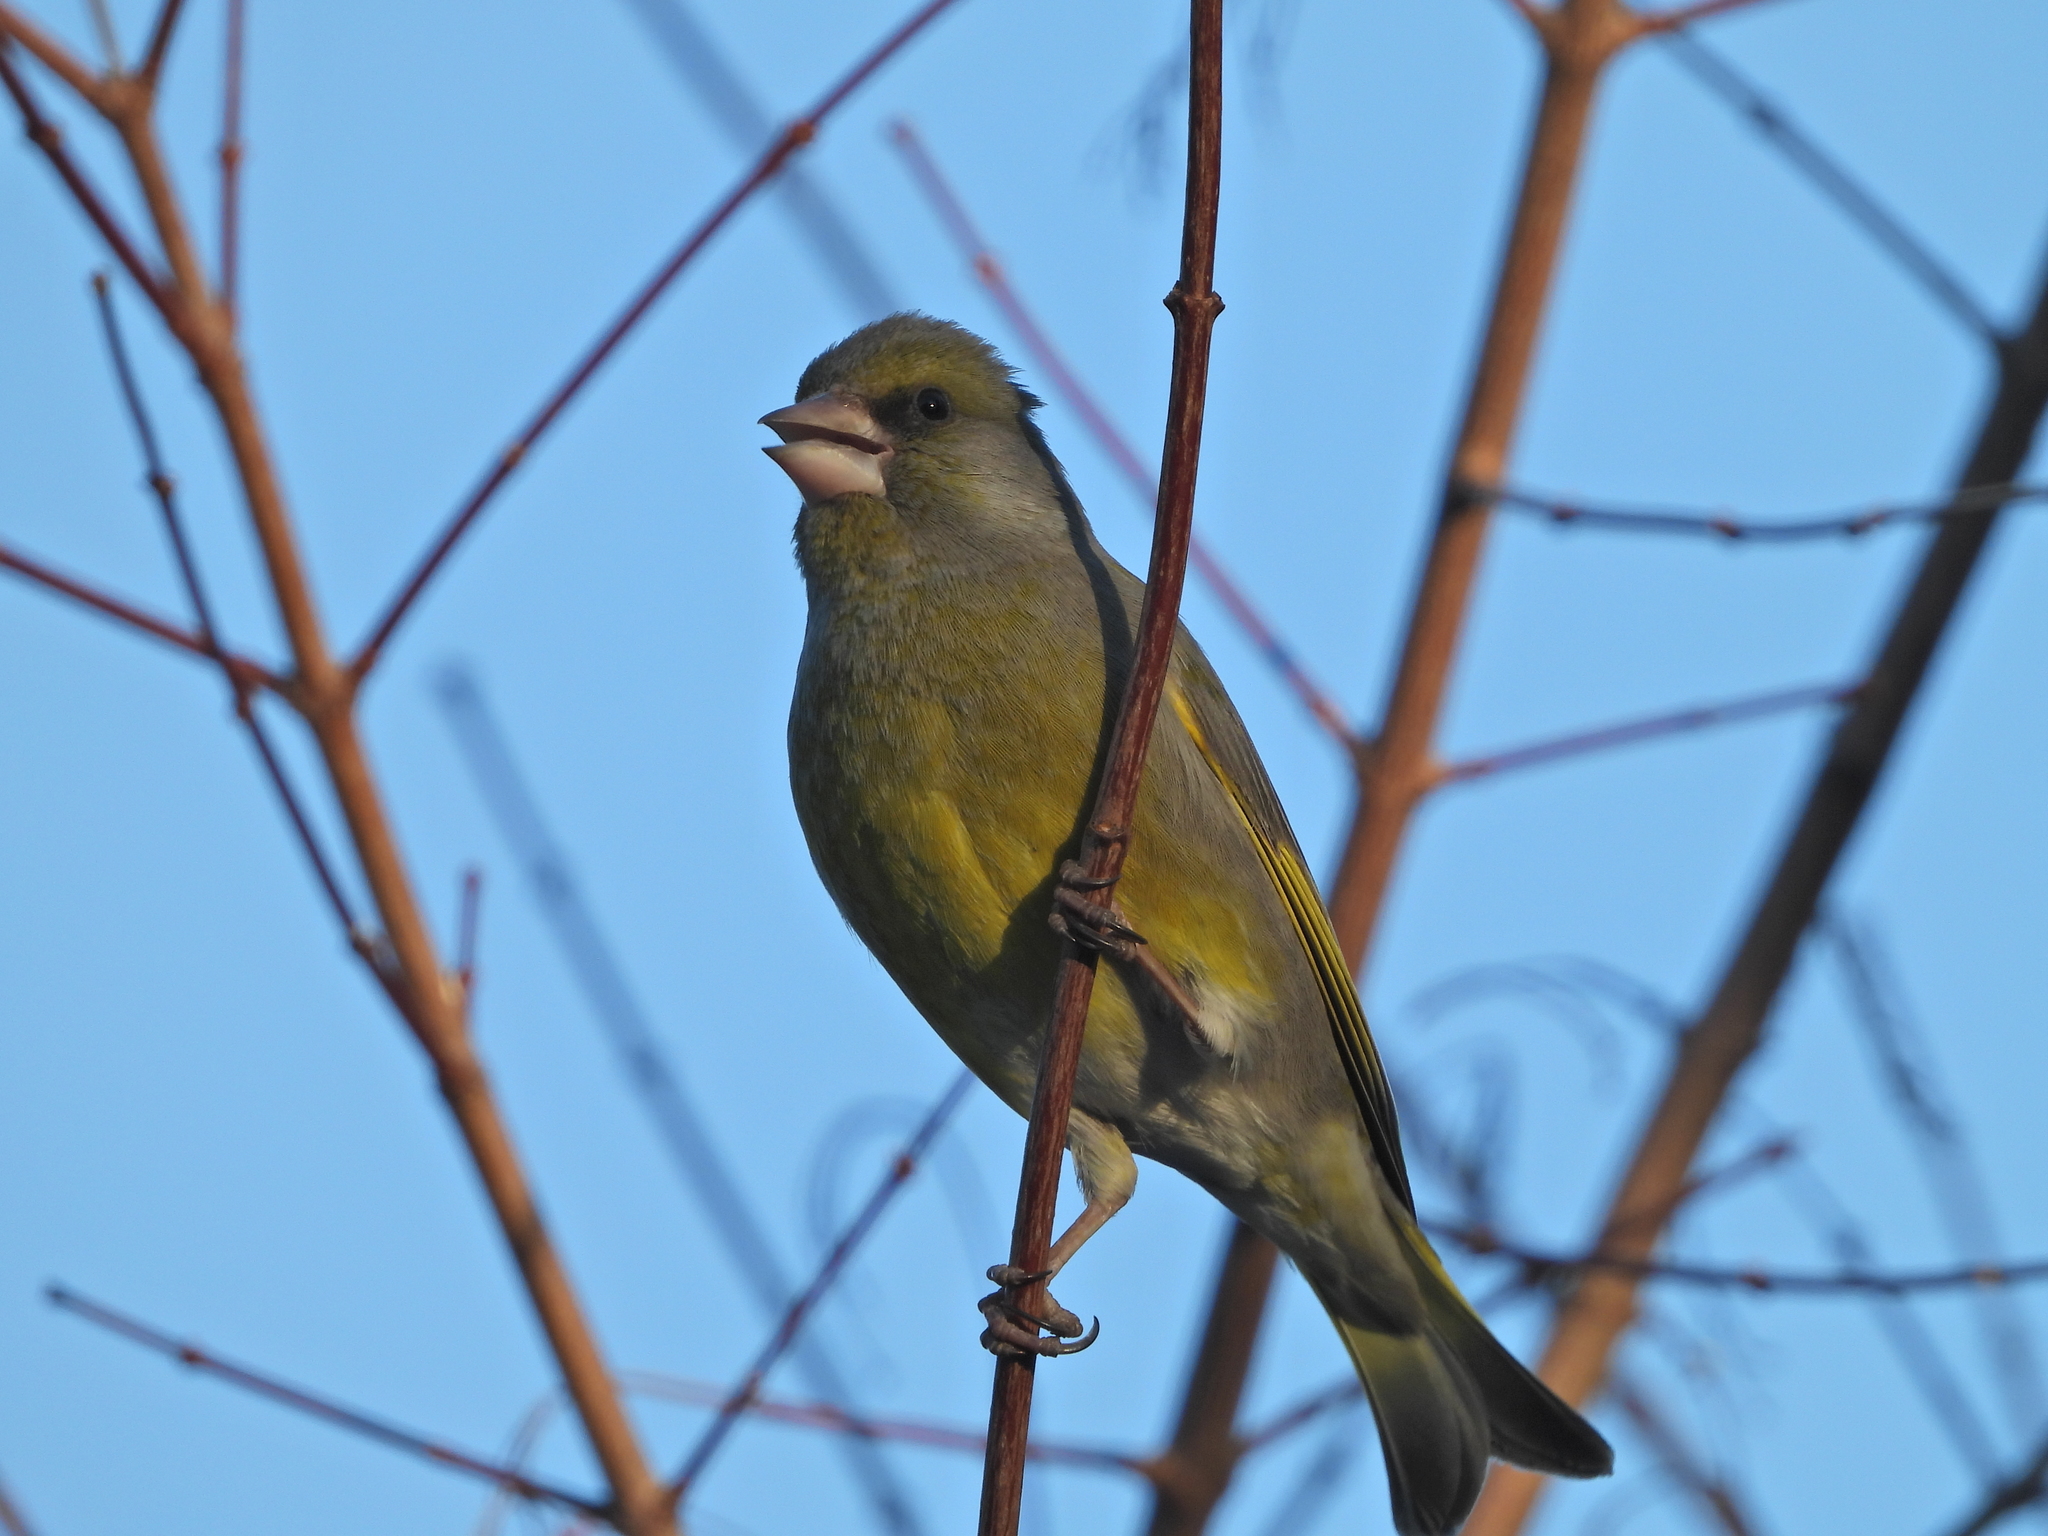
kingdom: Plantae
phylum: Tracheophyta
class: Liliopsida
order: Poales
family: Poaceae
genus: Chloris
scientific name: Chloris chloris
